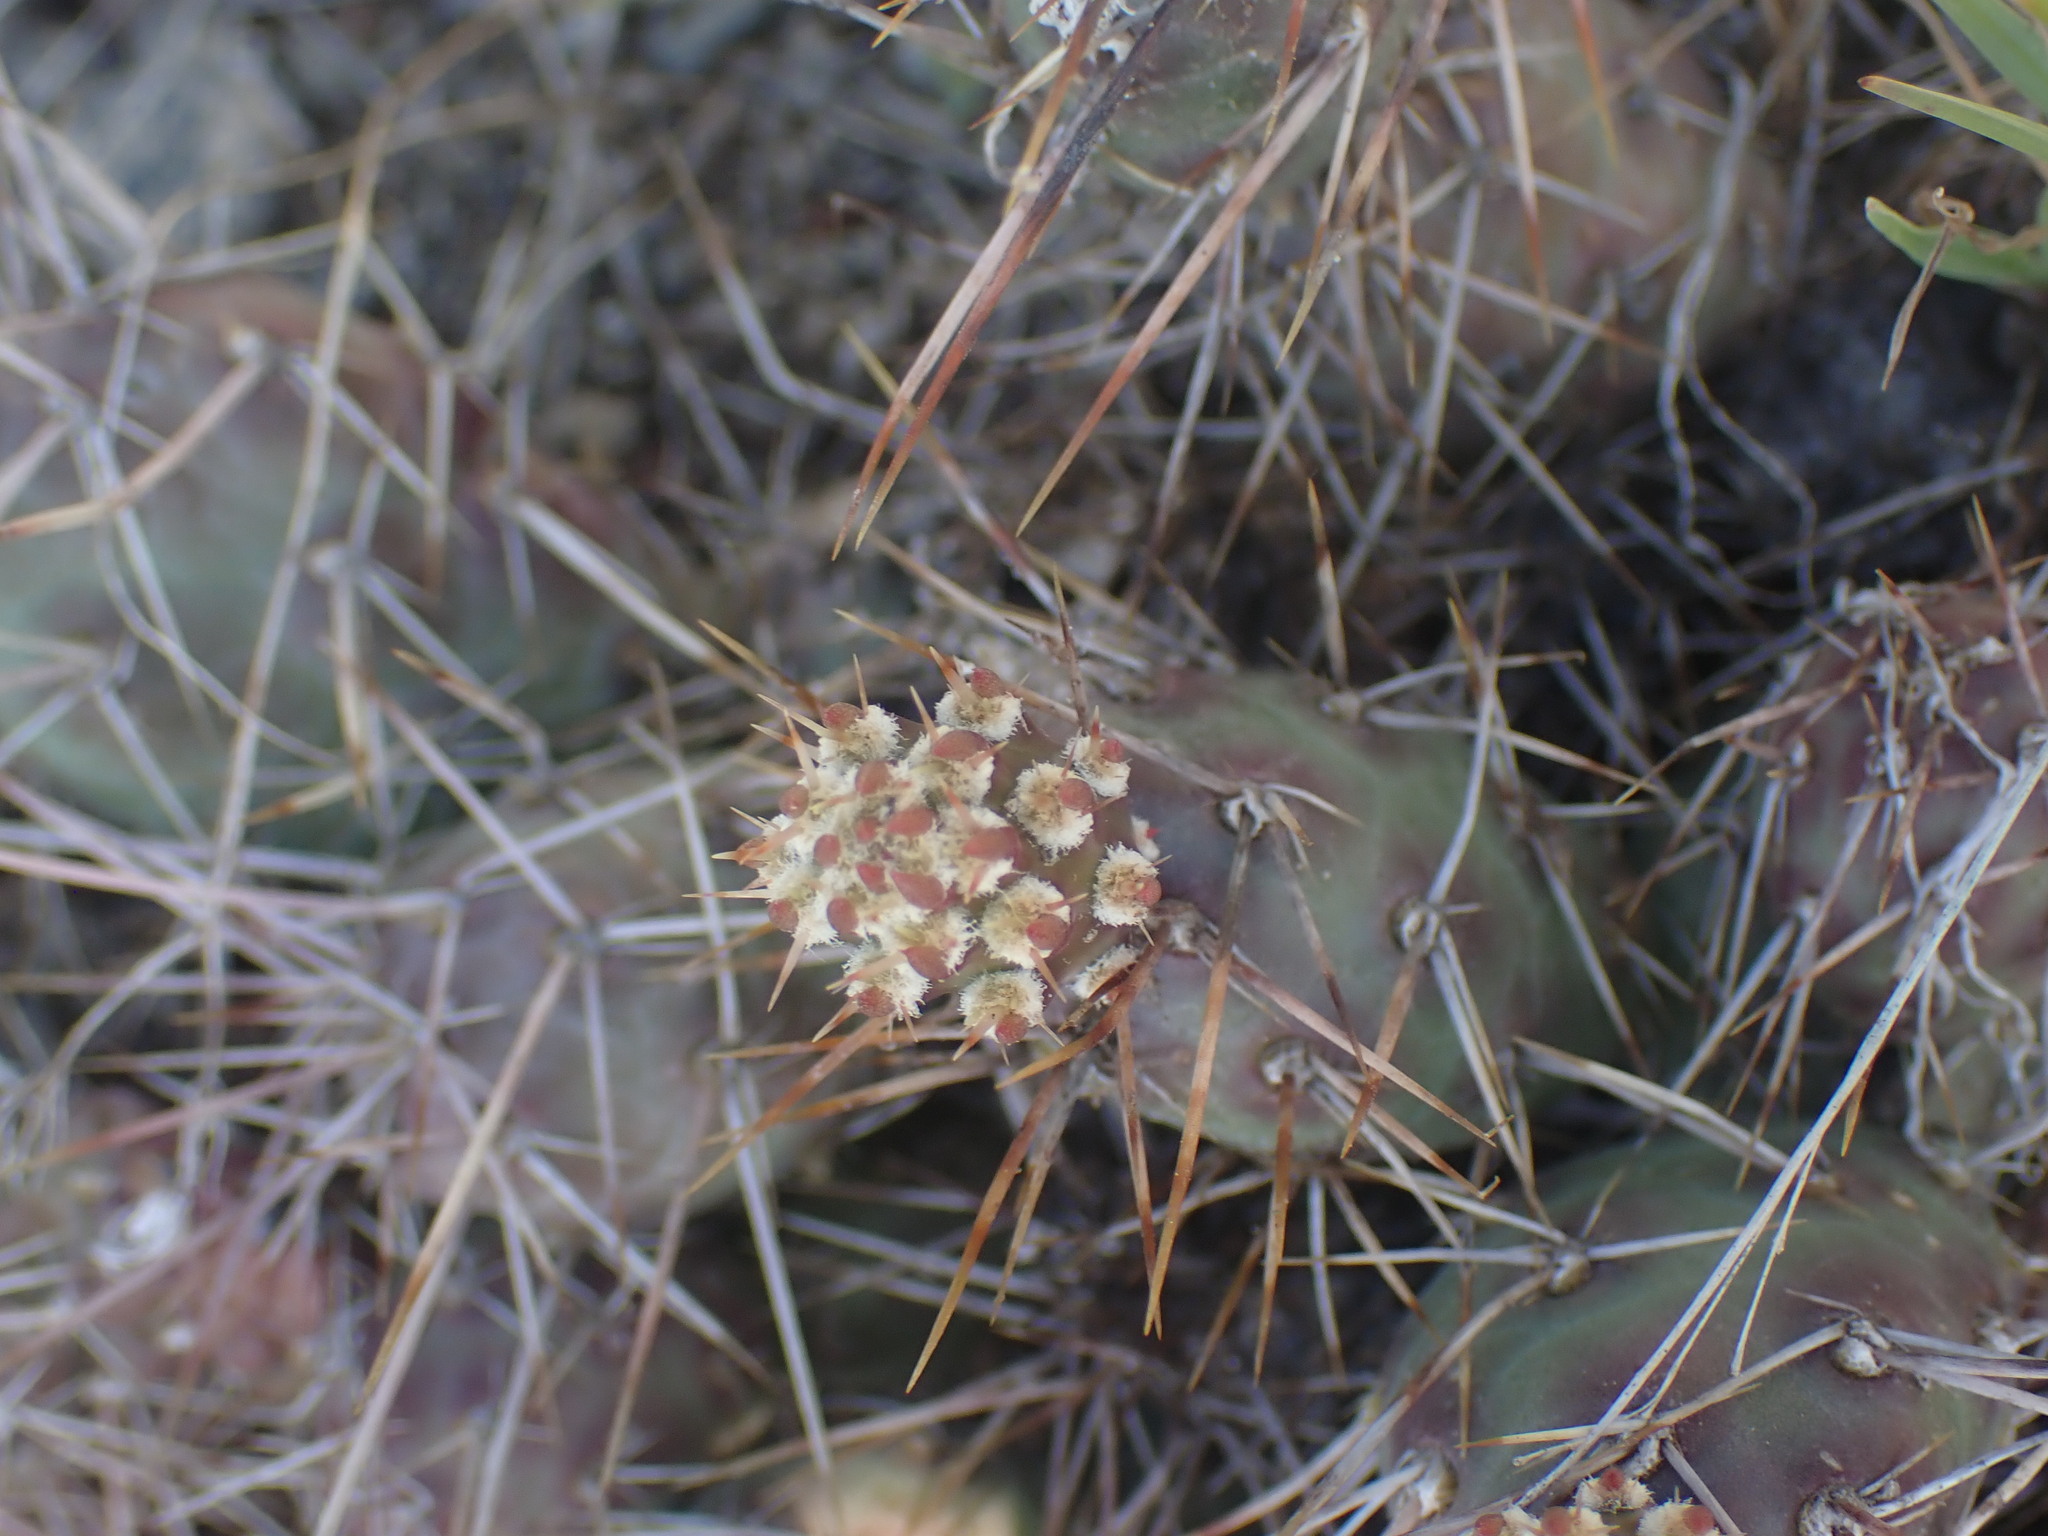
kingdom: Plantae
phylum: Tracheophyta
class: Magnoliopsida
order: Caryophyllales
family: Cactaceae
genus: Opuntia
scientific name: Opuntia fragilis
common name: Brittle cactus
